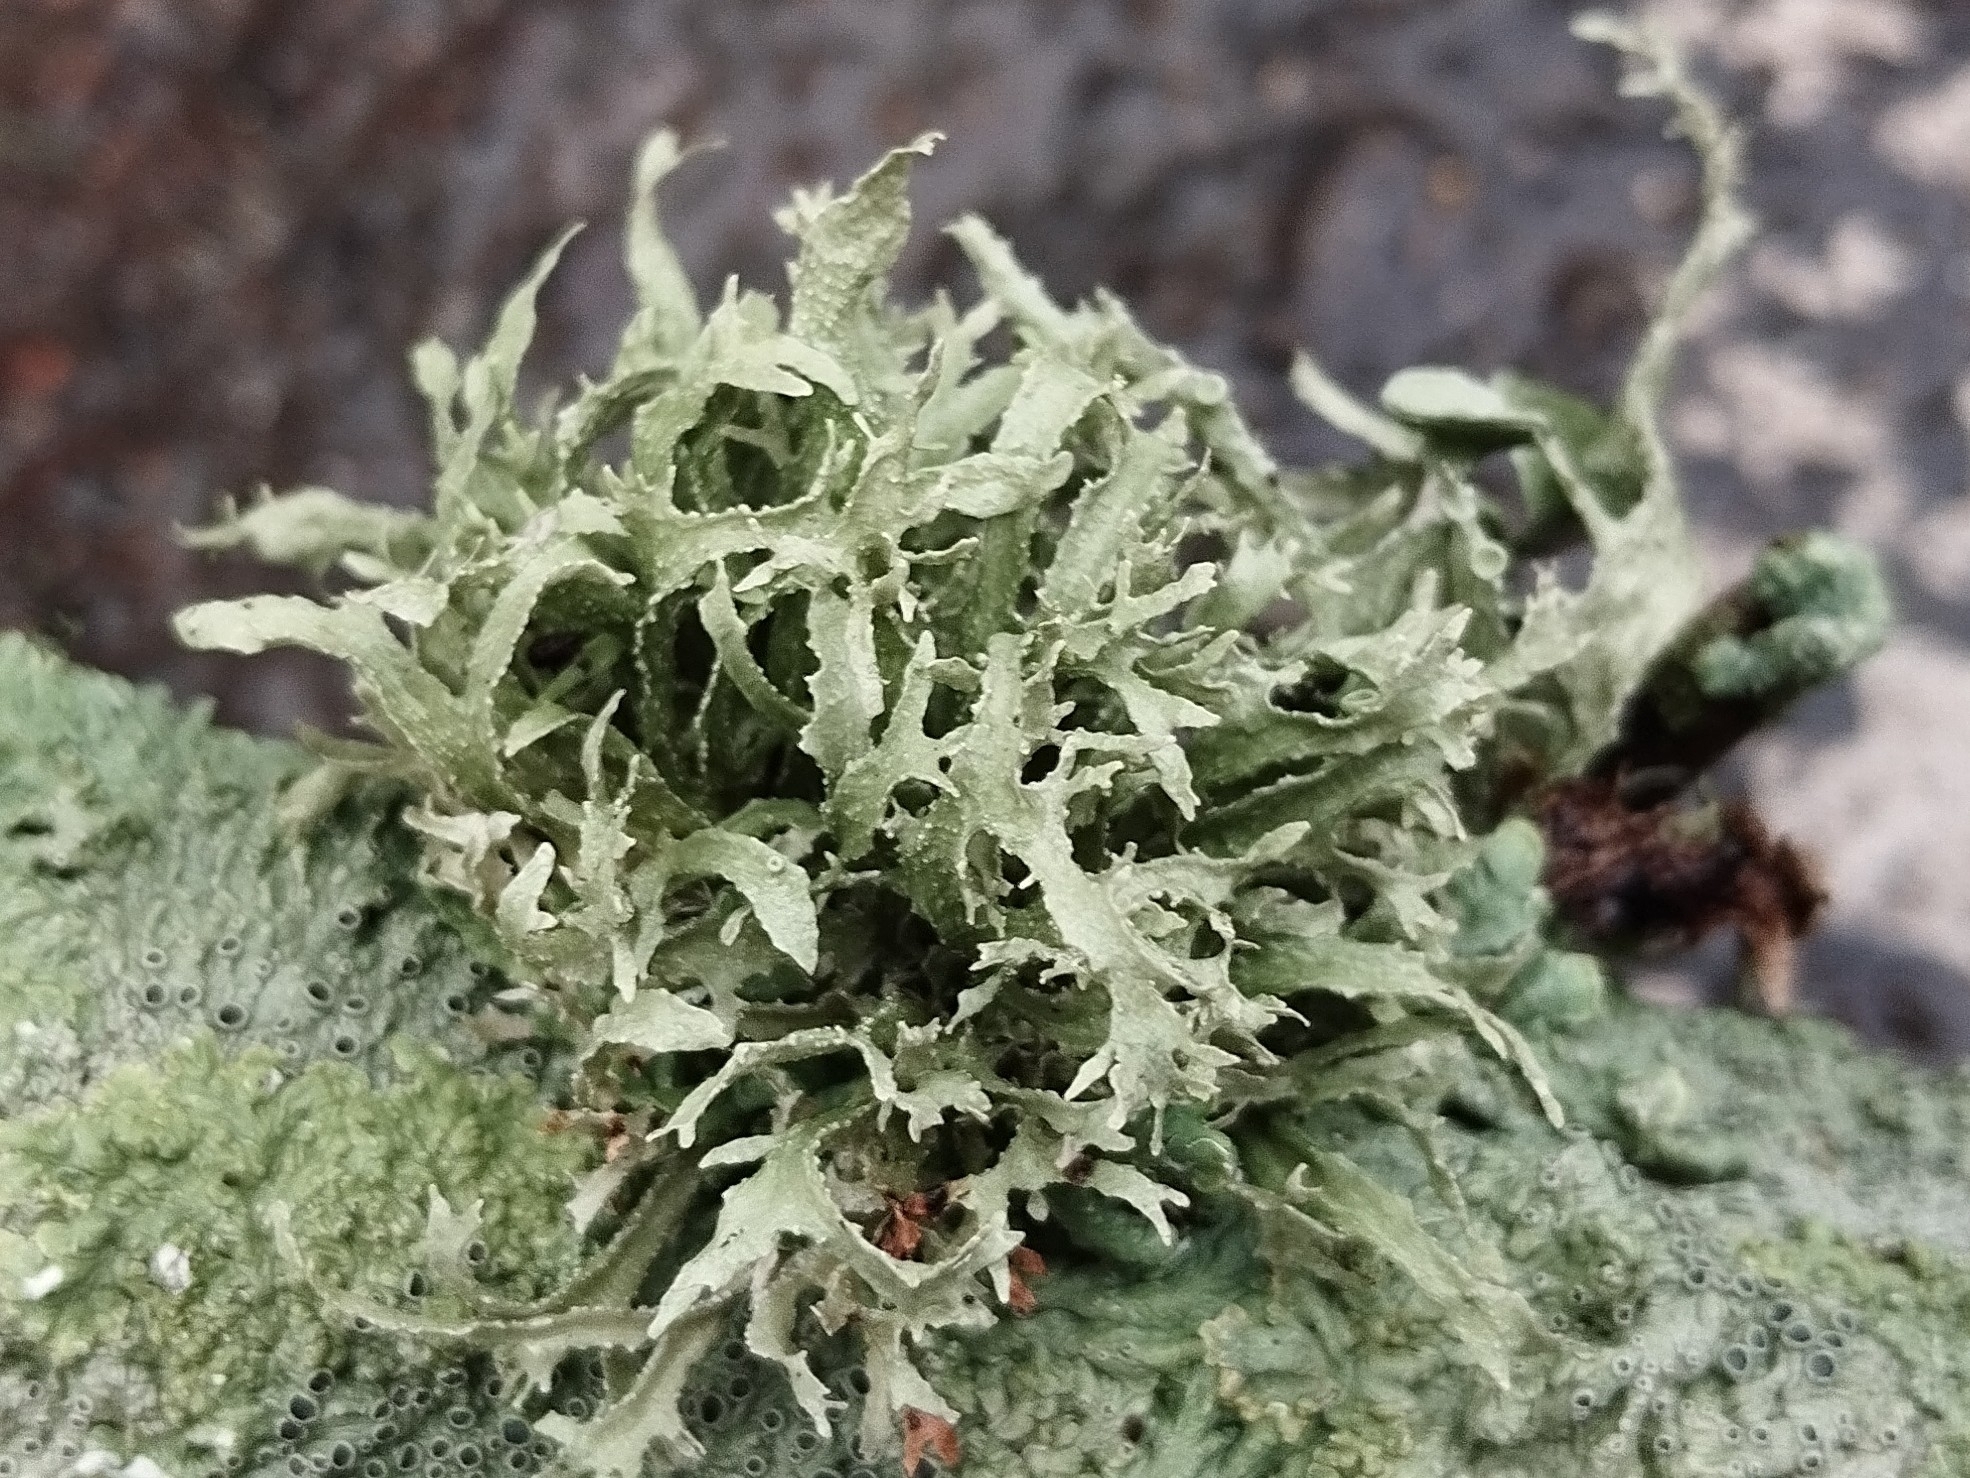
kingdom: Fungi
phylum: Ascomycota
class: Lecanoromycetes
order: Lecanorales
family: Ramalinaceae
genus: Ramalina
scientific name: Ramalina complanata
